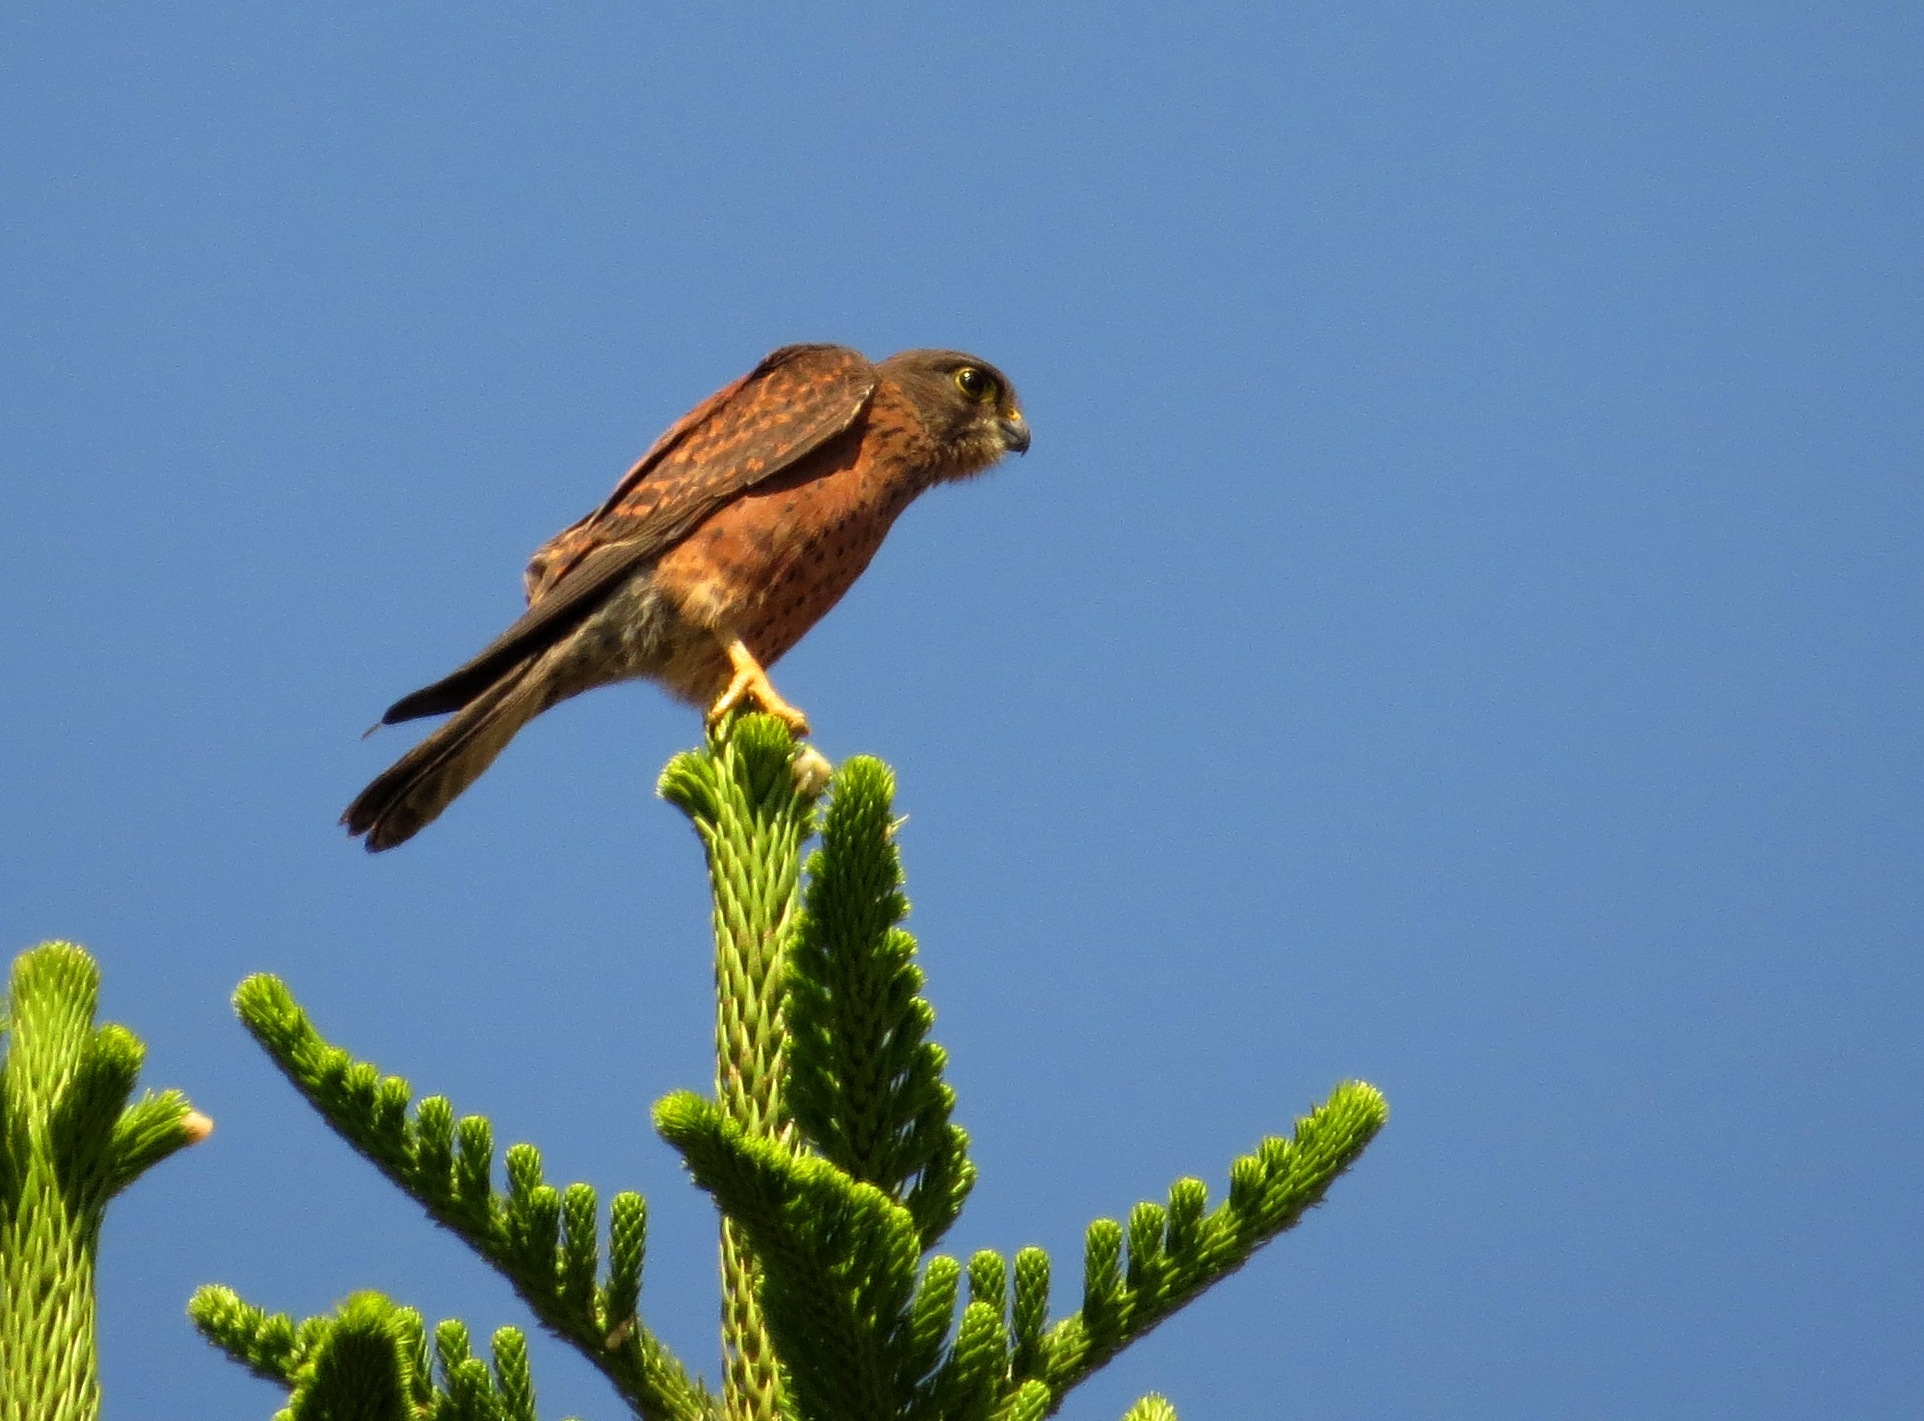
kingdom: Animalia
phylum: Chordata
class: Aves
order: Falconiformes
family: Falconidae
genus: Falco
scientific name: Falco newtoni
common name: Malagasy kestrel
